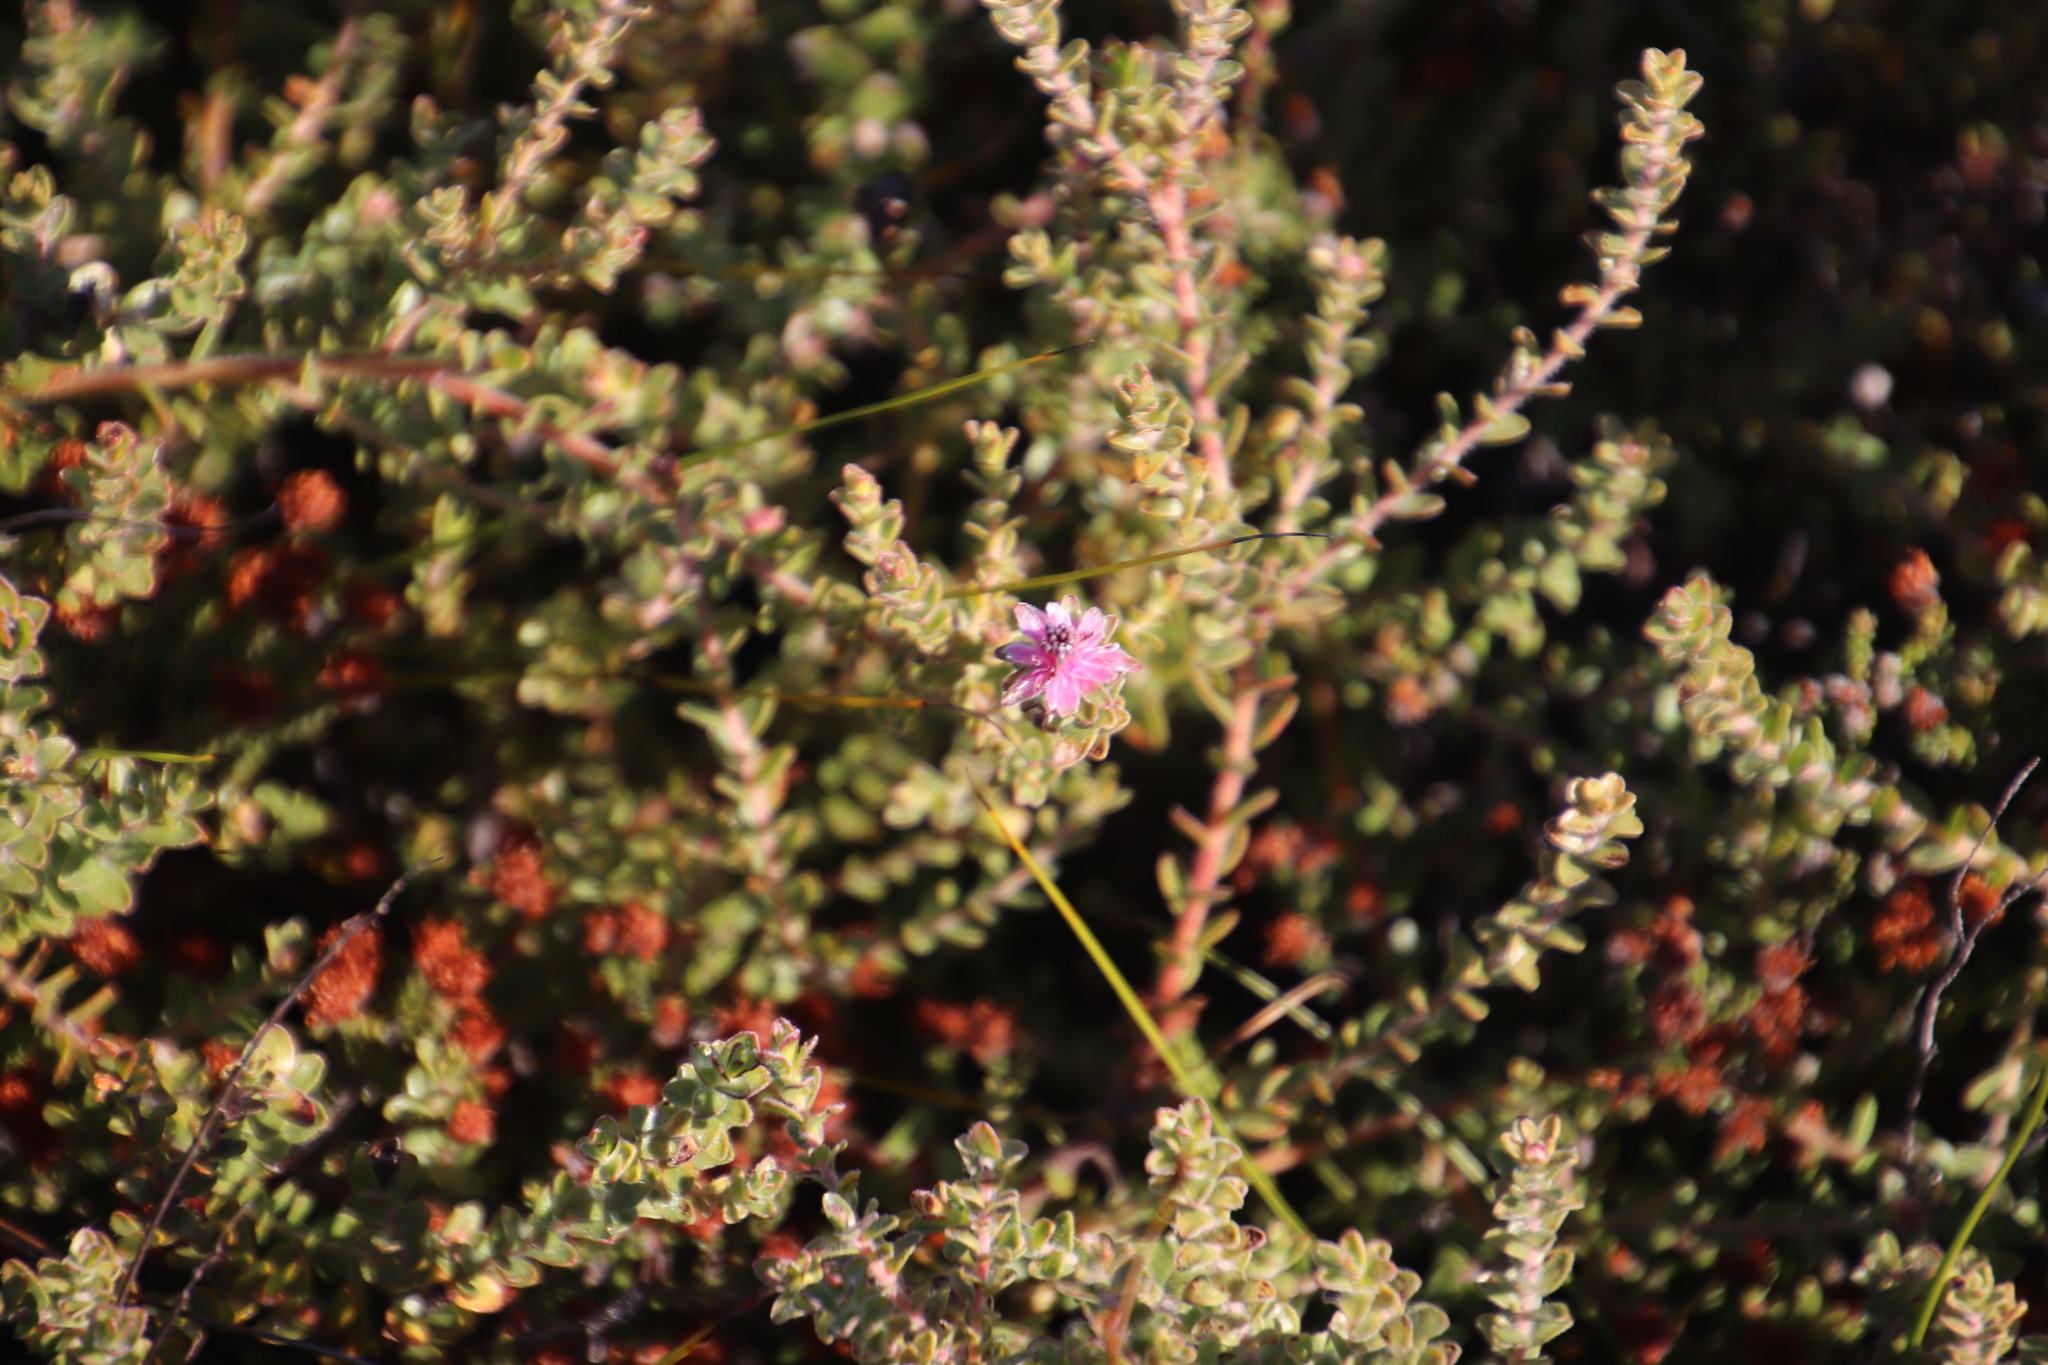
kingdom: Plantae
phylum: Tracheophyta
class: Magnoliopsida
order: Proteales
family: Proteaceae
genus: Diastella
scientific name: Diastella divaricata
